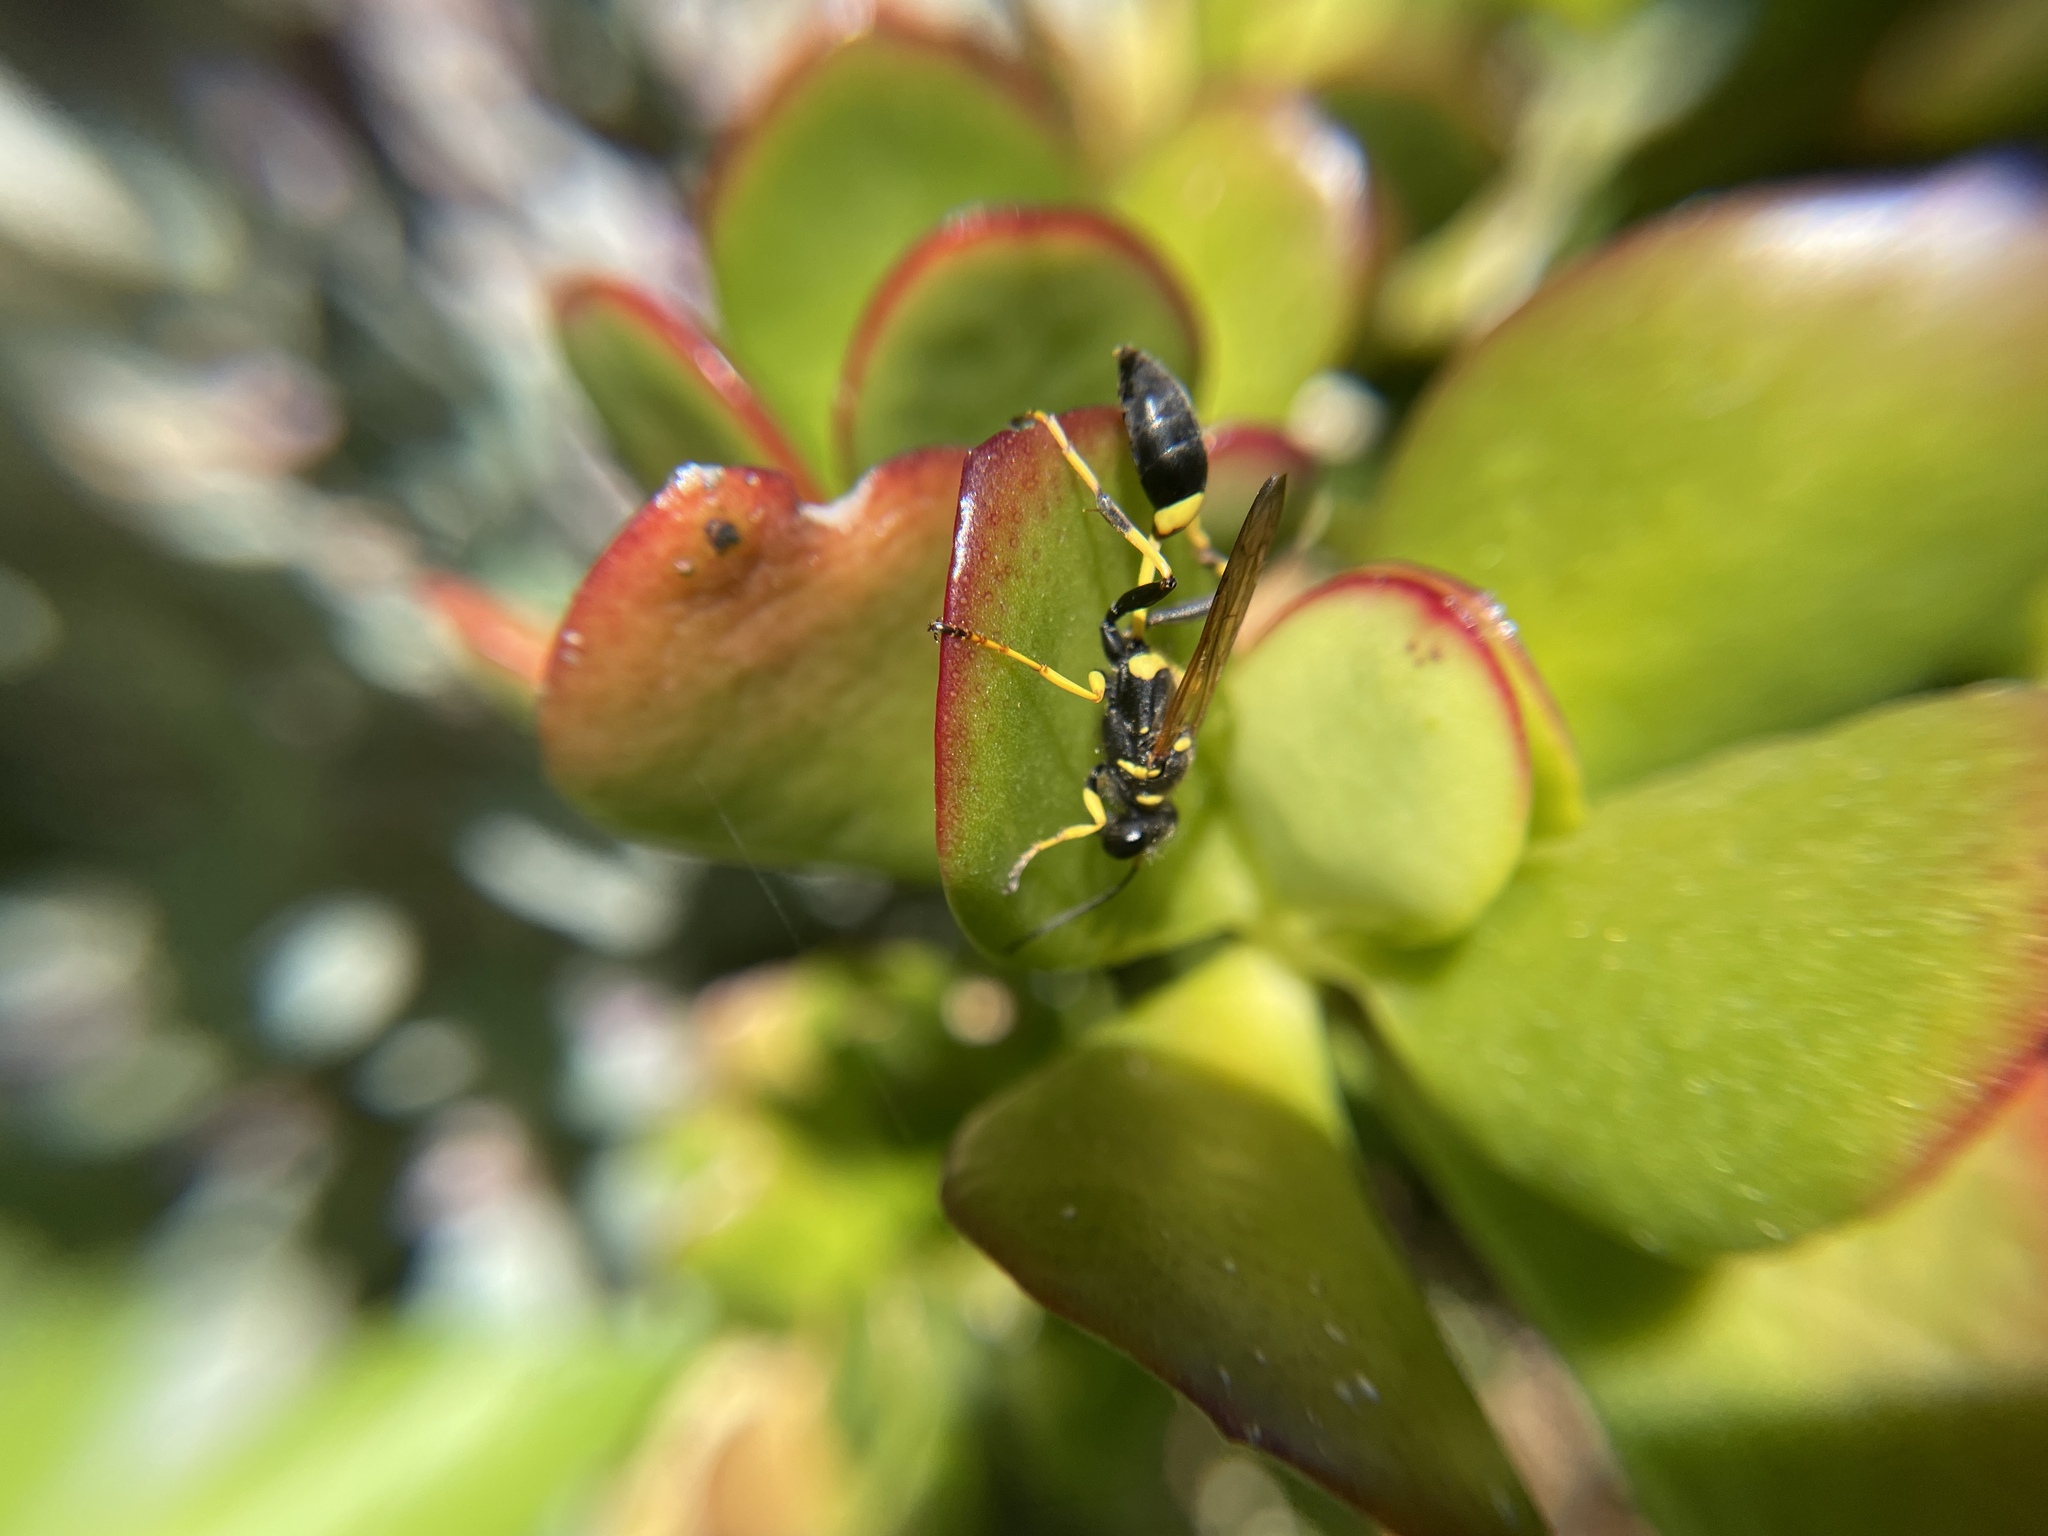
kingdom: Animalia
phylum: Arthropoda
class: Insecta
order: Hymenoptera
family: Sphecidae
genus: Sceliphron
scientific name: Sceliphron caementarium
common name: Mud dauber
